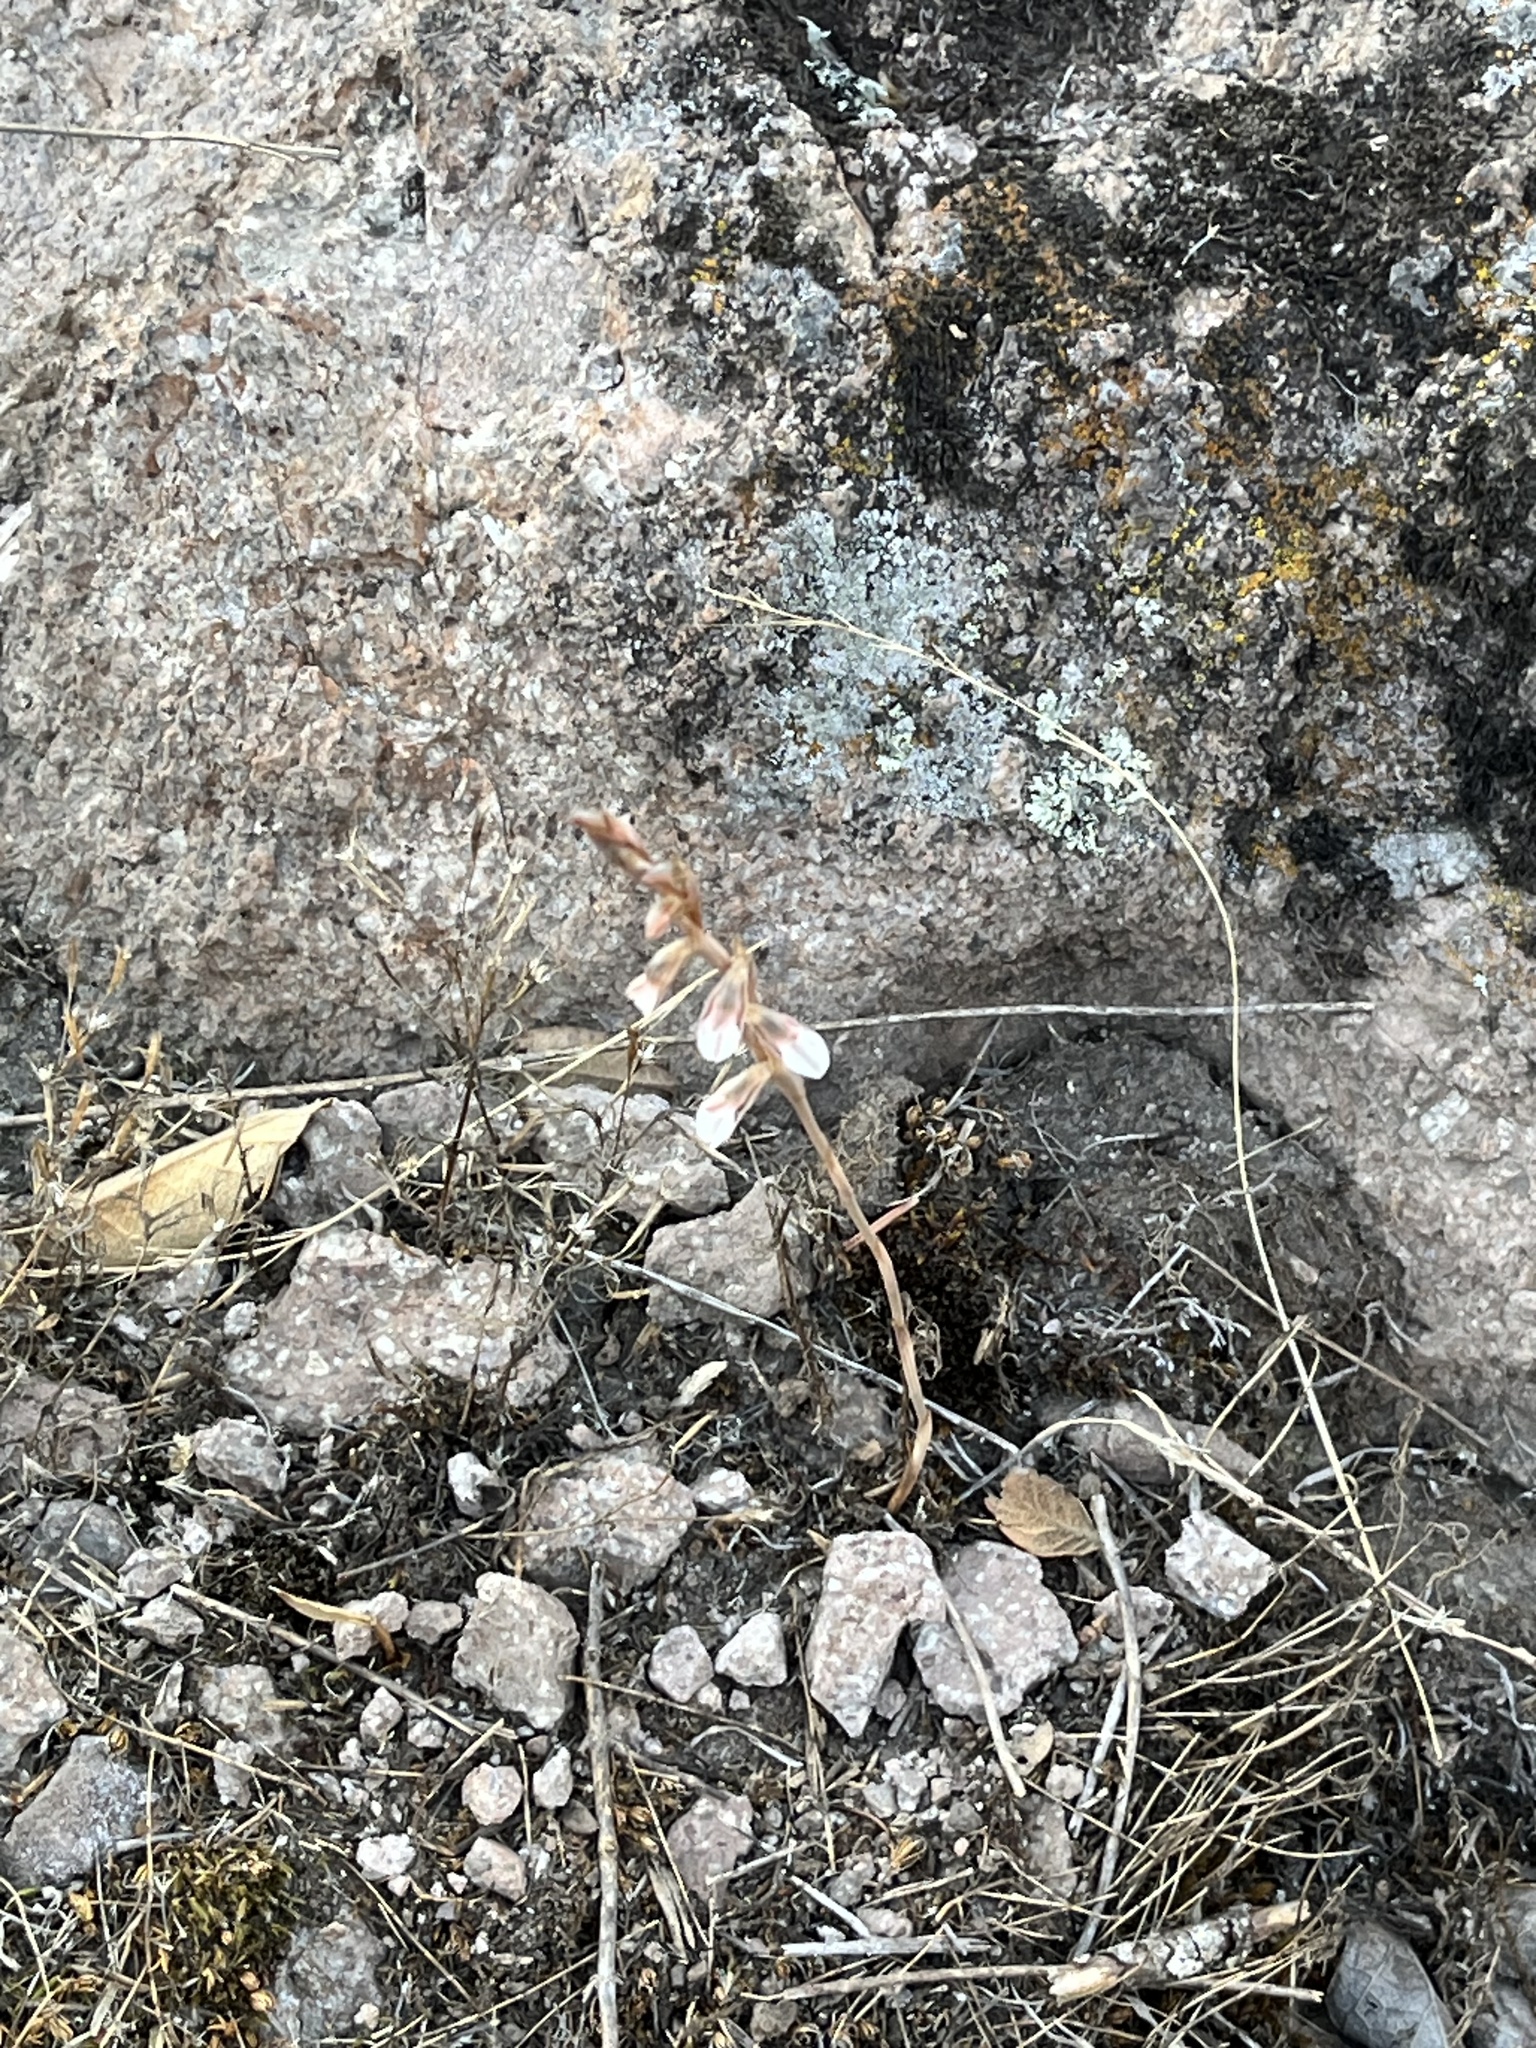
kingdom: Plantae
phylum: Tracheophyta
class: Liliopsida
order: Asparagales
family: Orchidaceae
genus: Greenwoodiella
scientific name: Greenwoodiella micrantha
